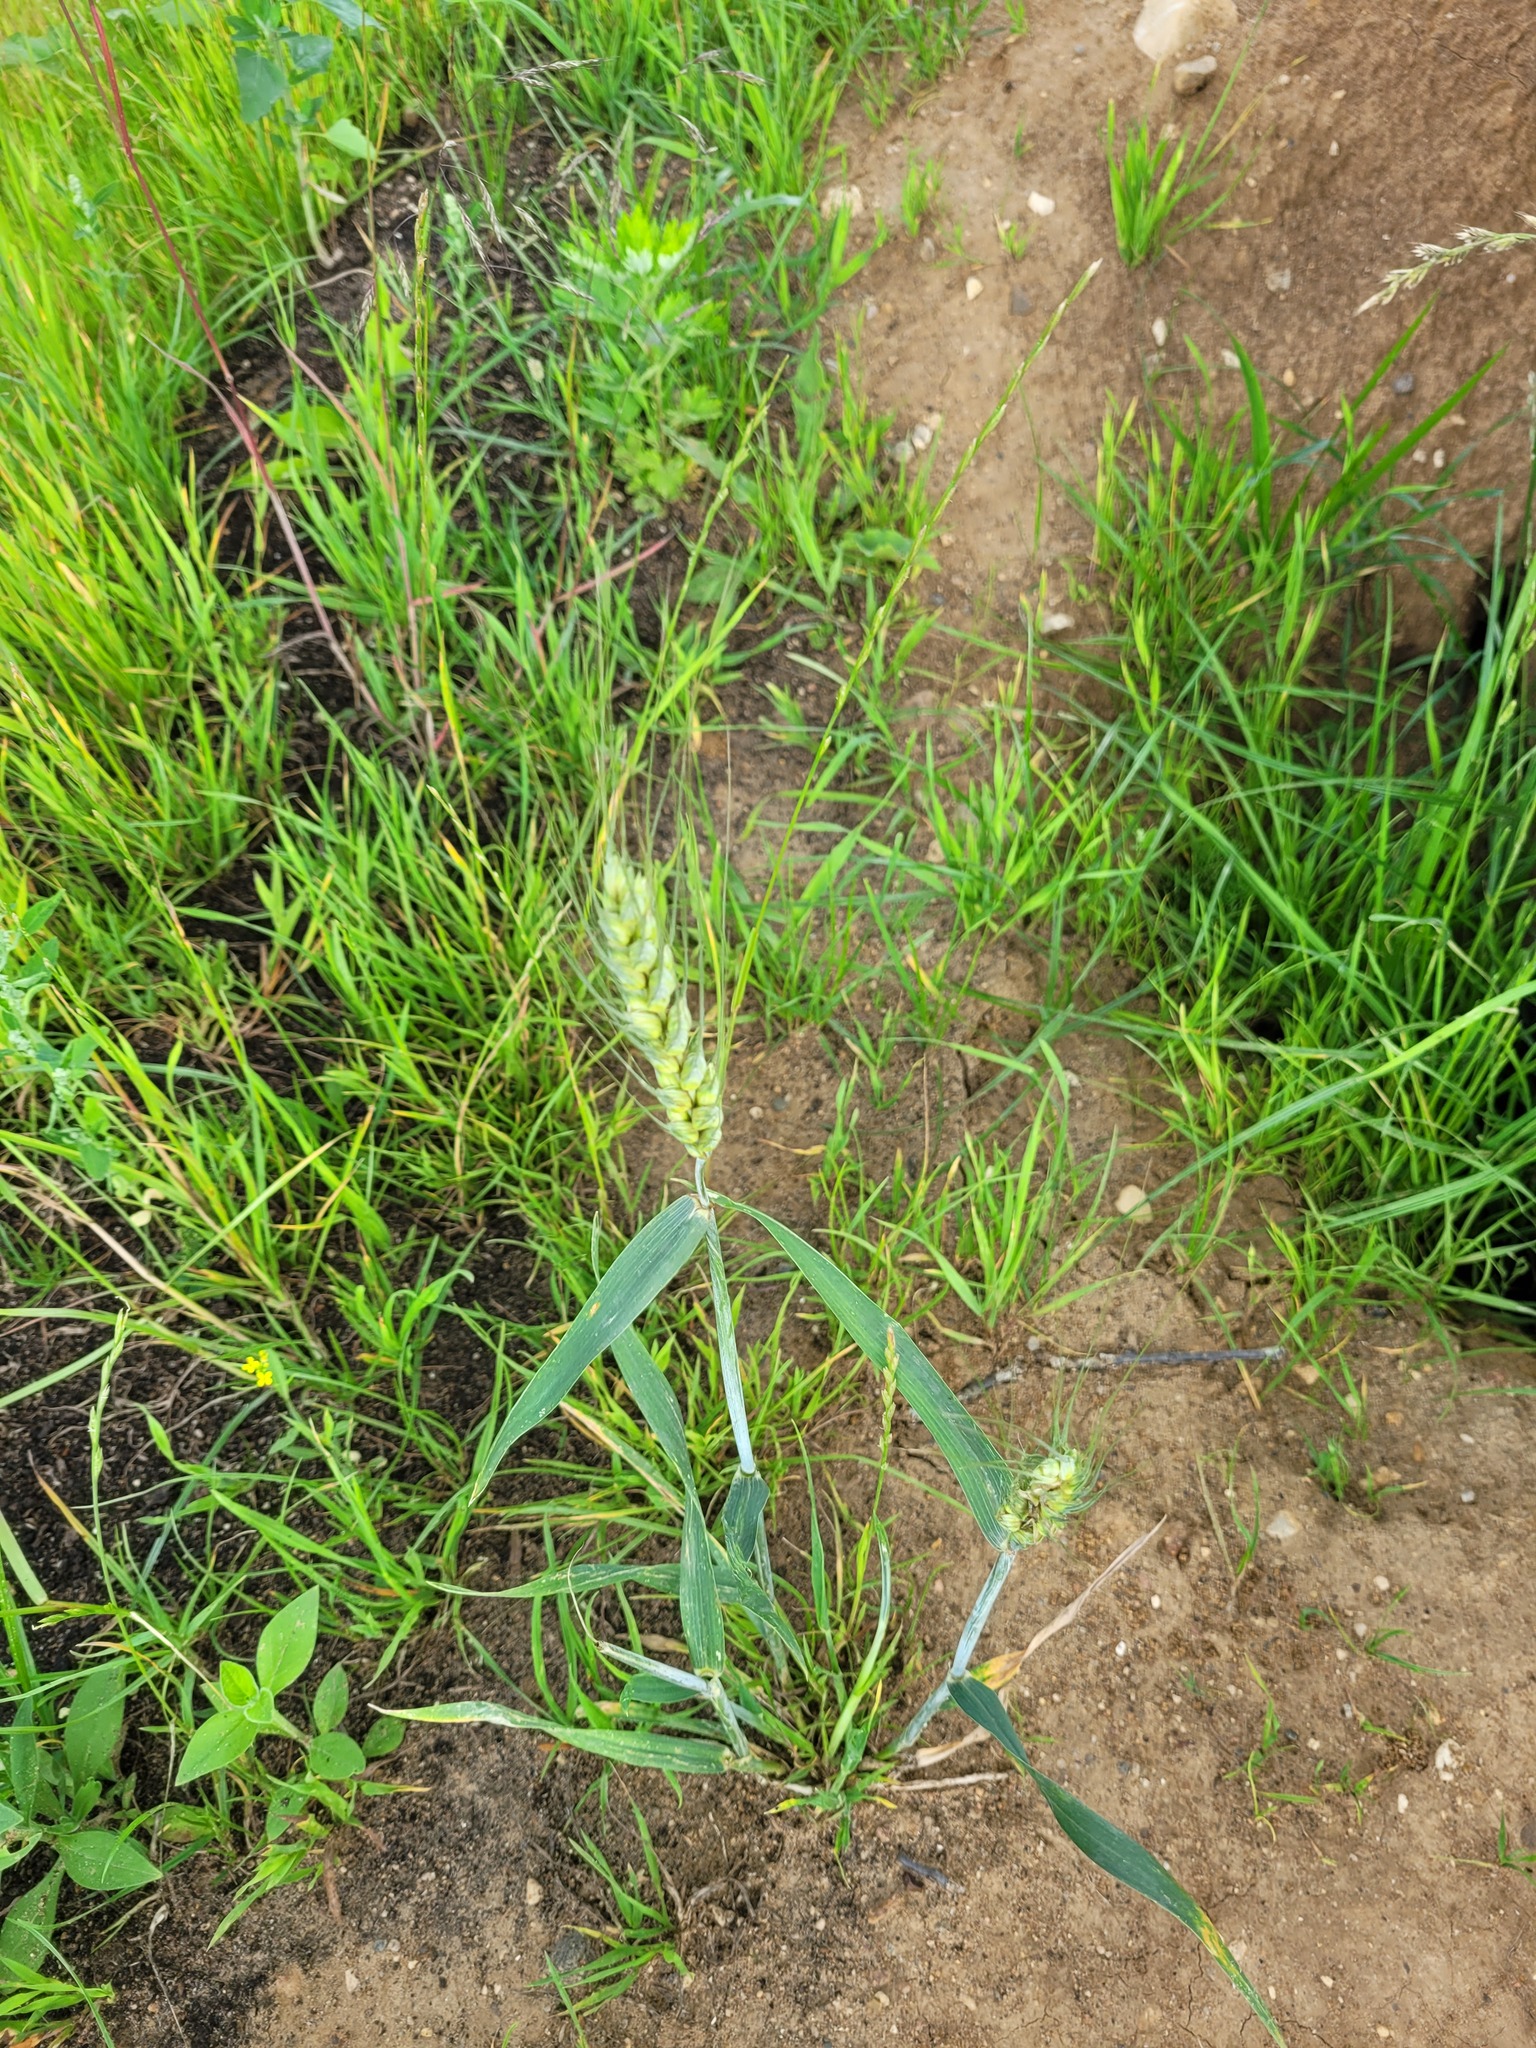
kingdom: Plantae
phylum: Tracheophyta
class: Liliopsida
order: Poales
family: Poaceae
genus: Triticum
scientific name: Triticum aestivum
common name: Common wheat
